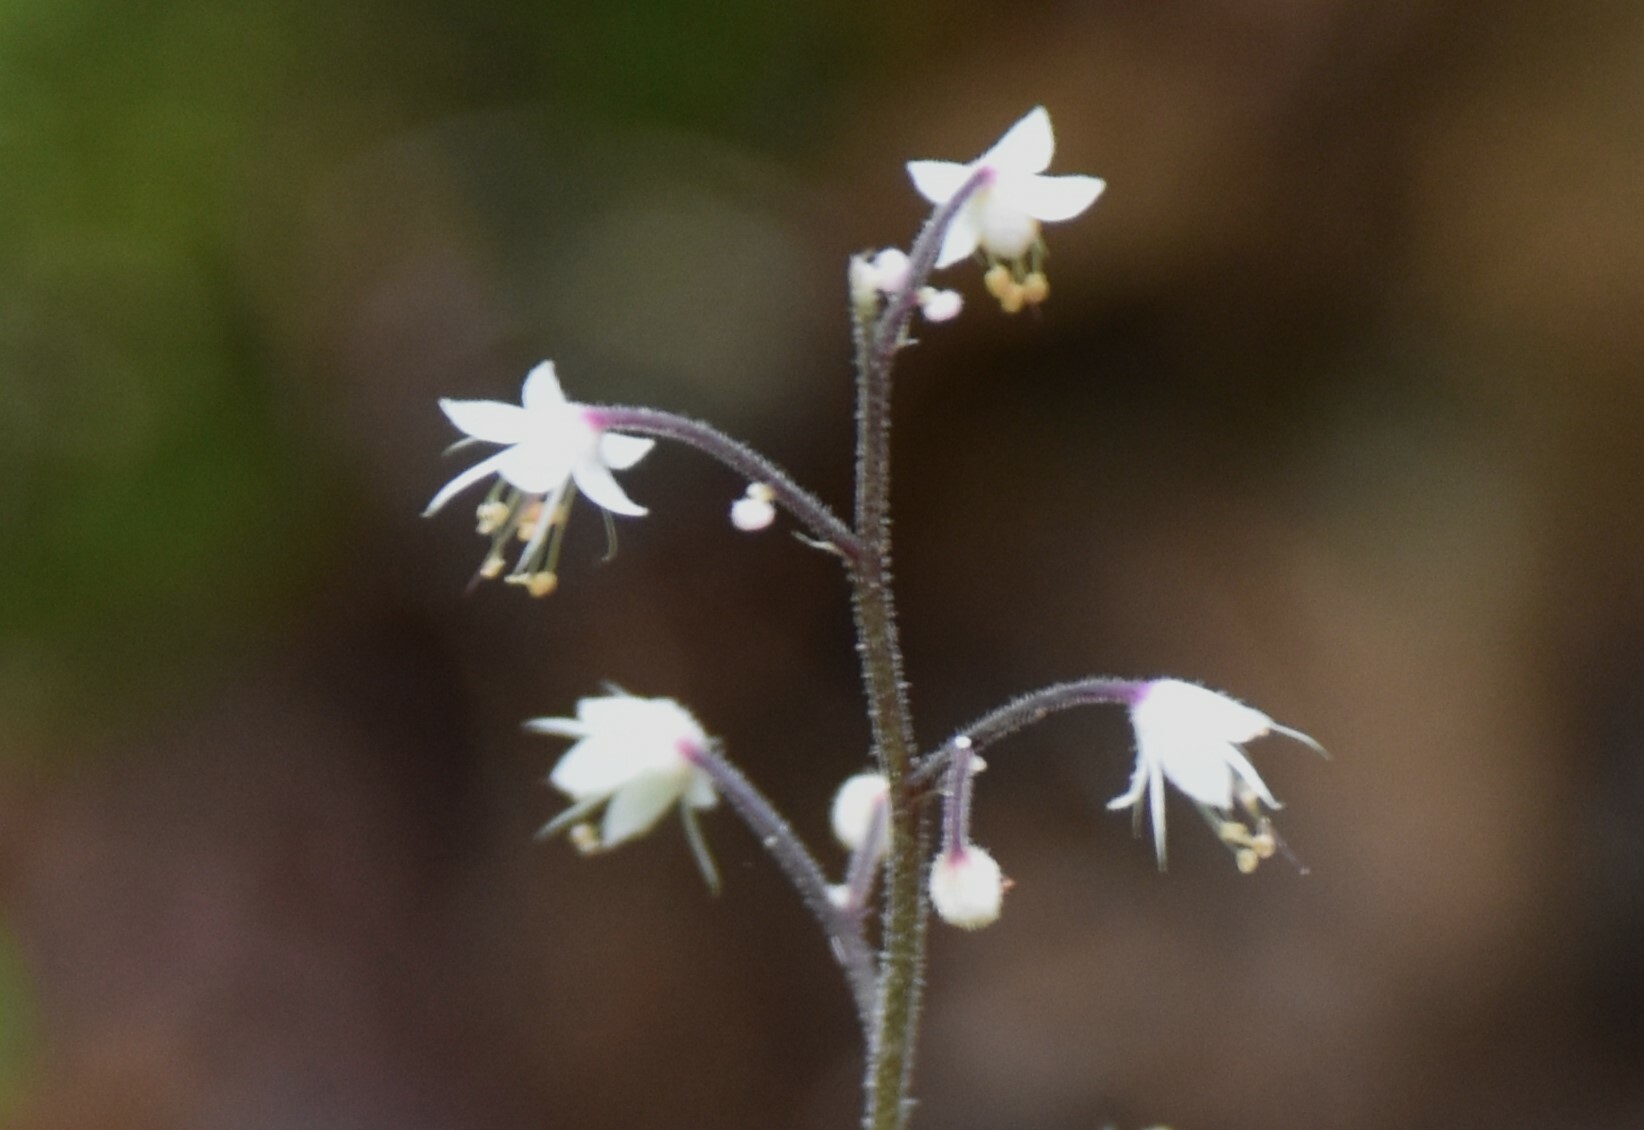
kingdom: Plantae
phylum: Tracheophyta
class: Magnoliopsida
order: Saxifragales
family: Saxifragaceae
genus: Tiarella
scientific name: Tiarella trifoliata
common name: Sugar-scoop
